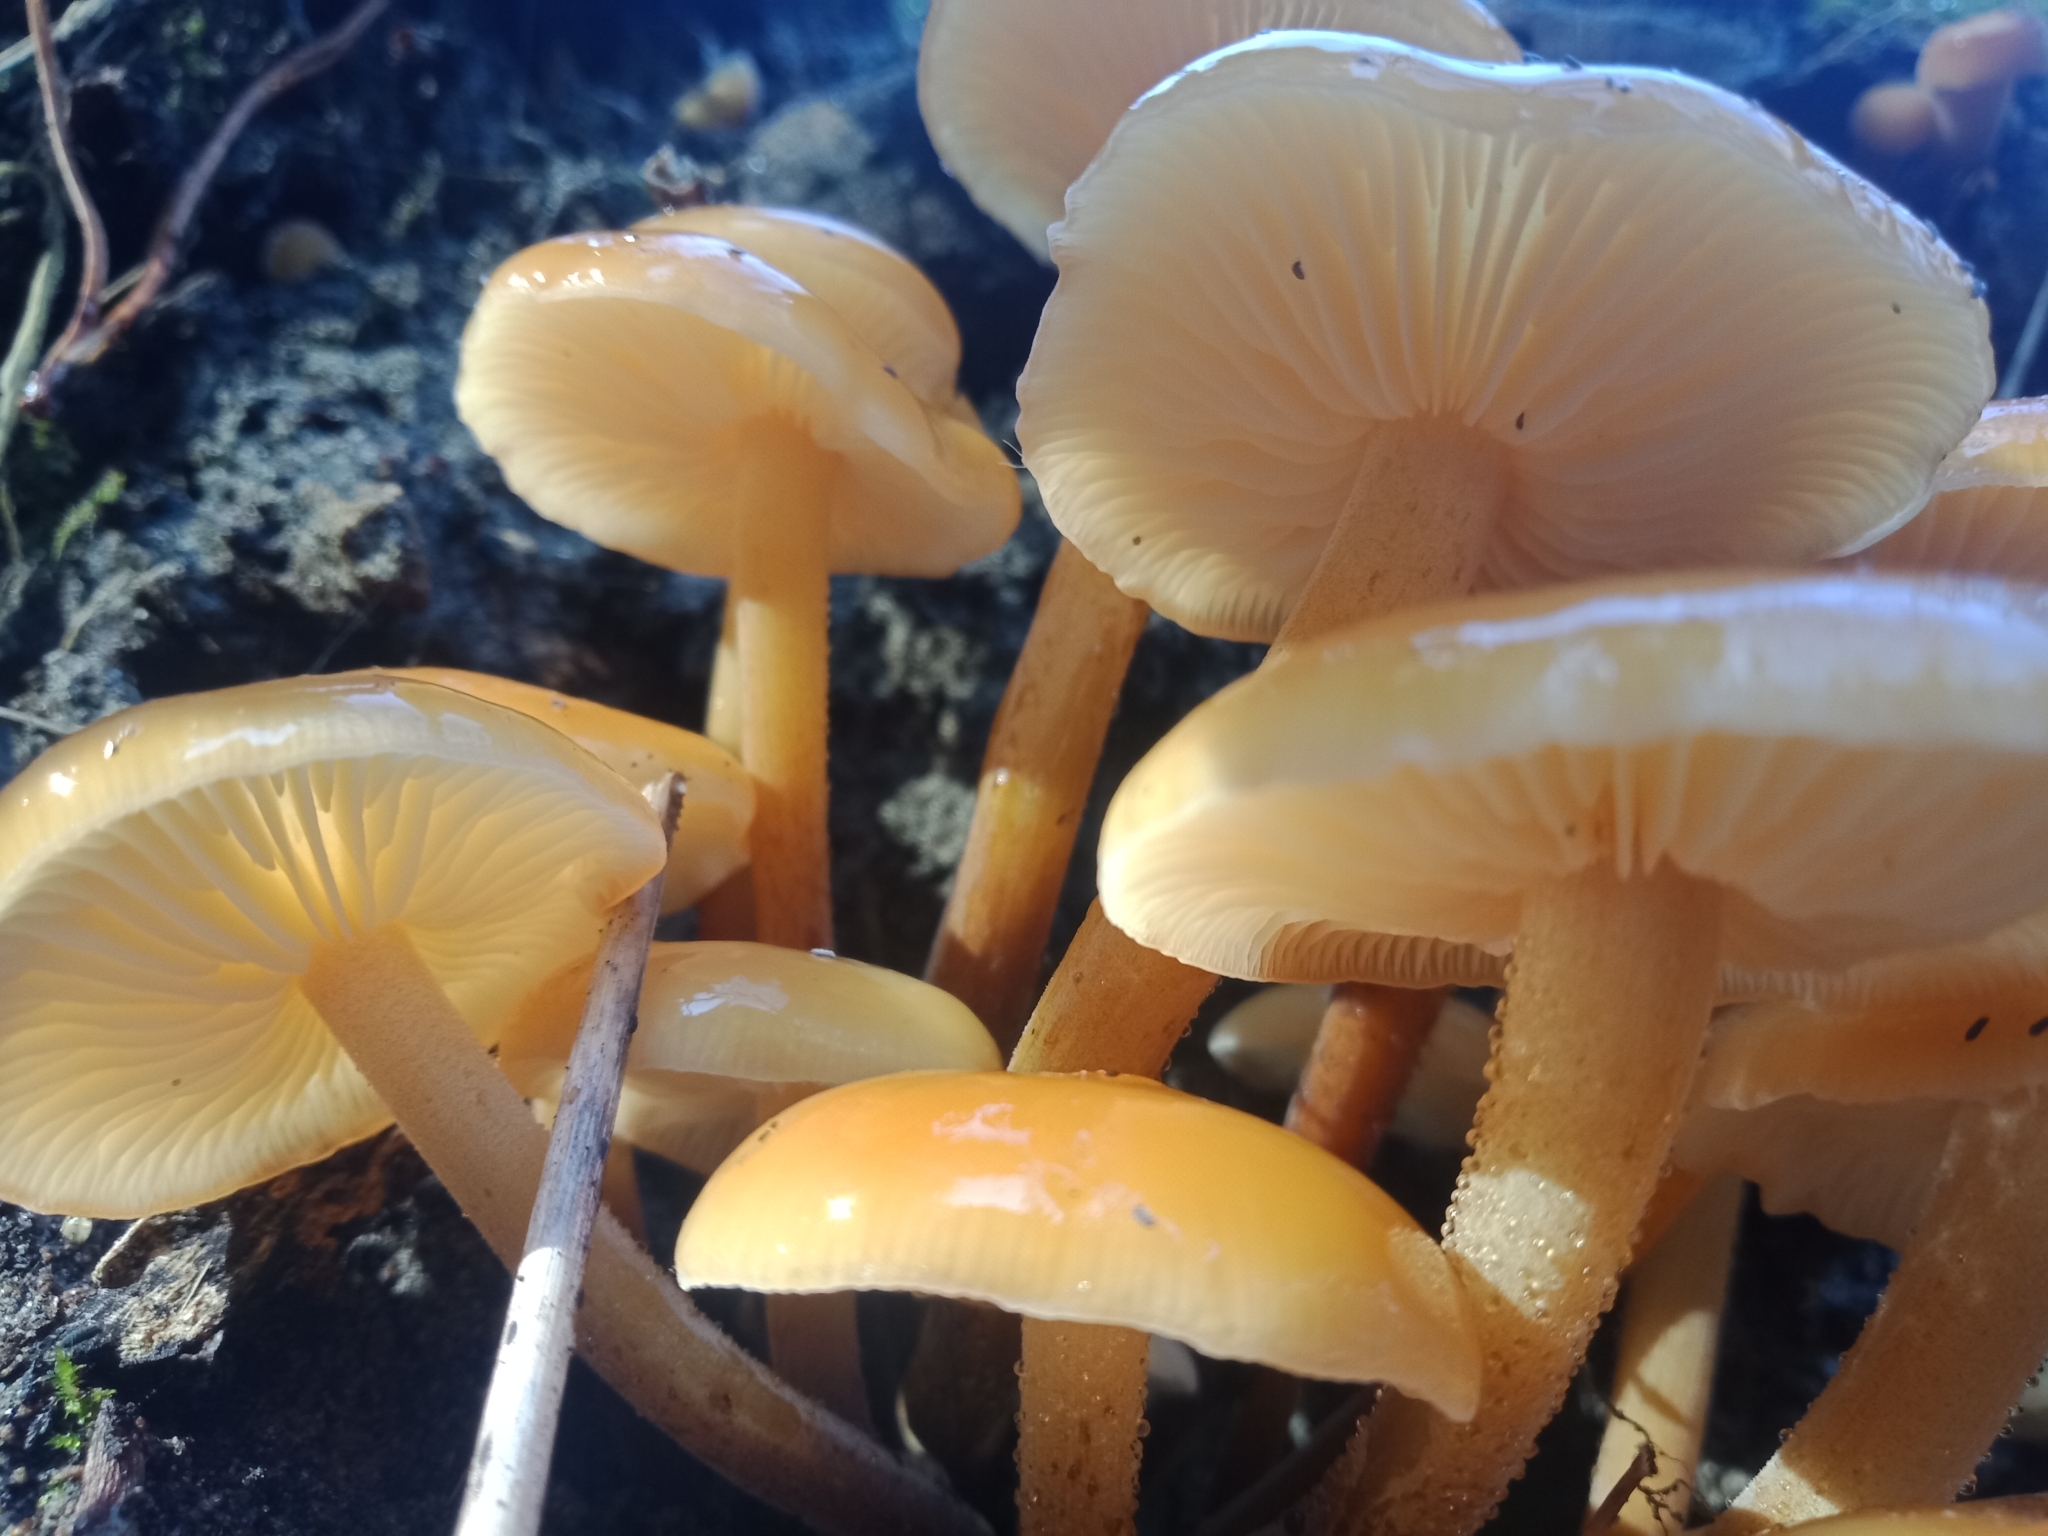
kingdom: Fungi
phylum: Basidiomycota
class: Agaricomycetes
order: Agaricales
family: Physalacriaceae
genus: Flammulina
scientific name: Flammulina velutipes
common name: Velvet shank
